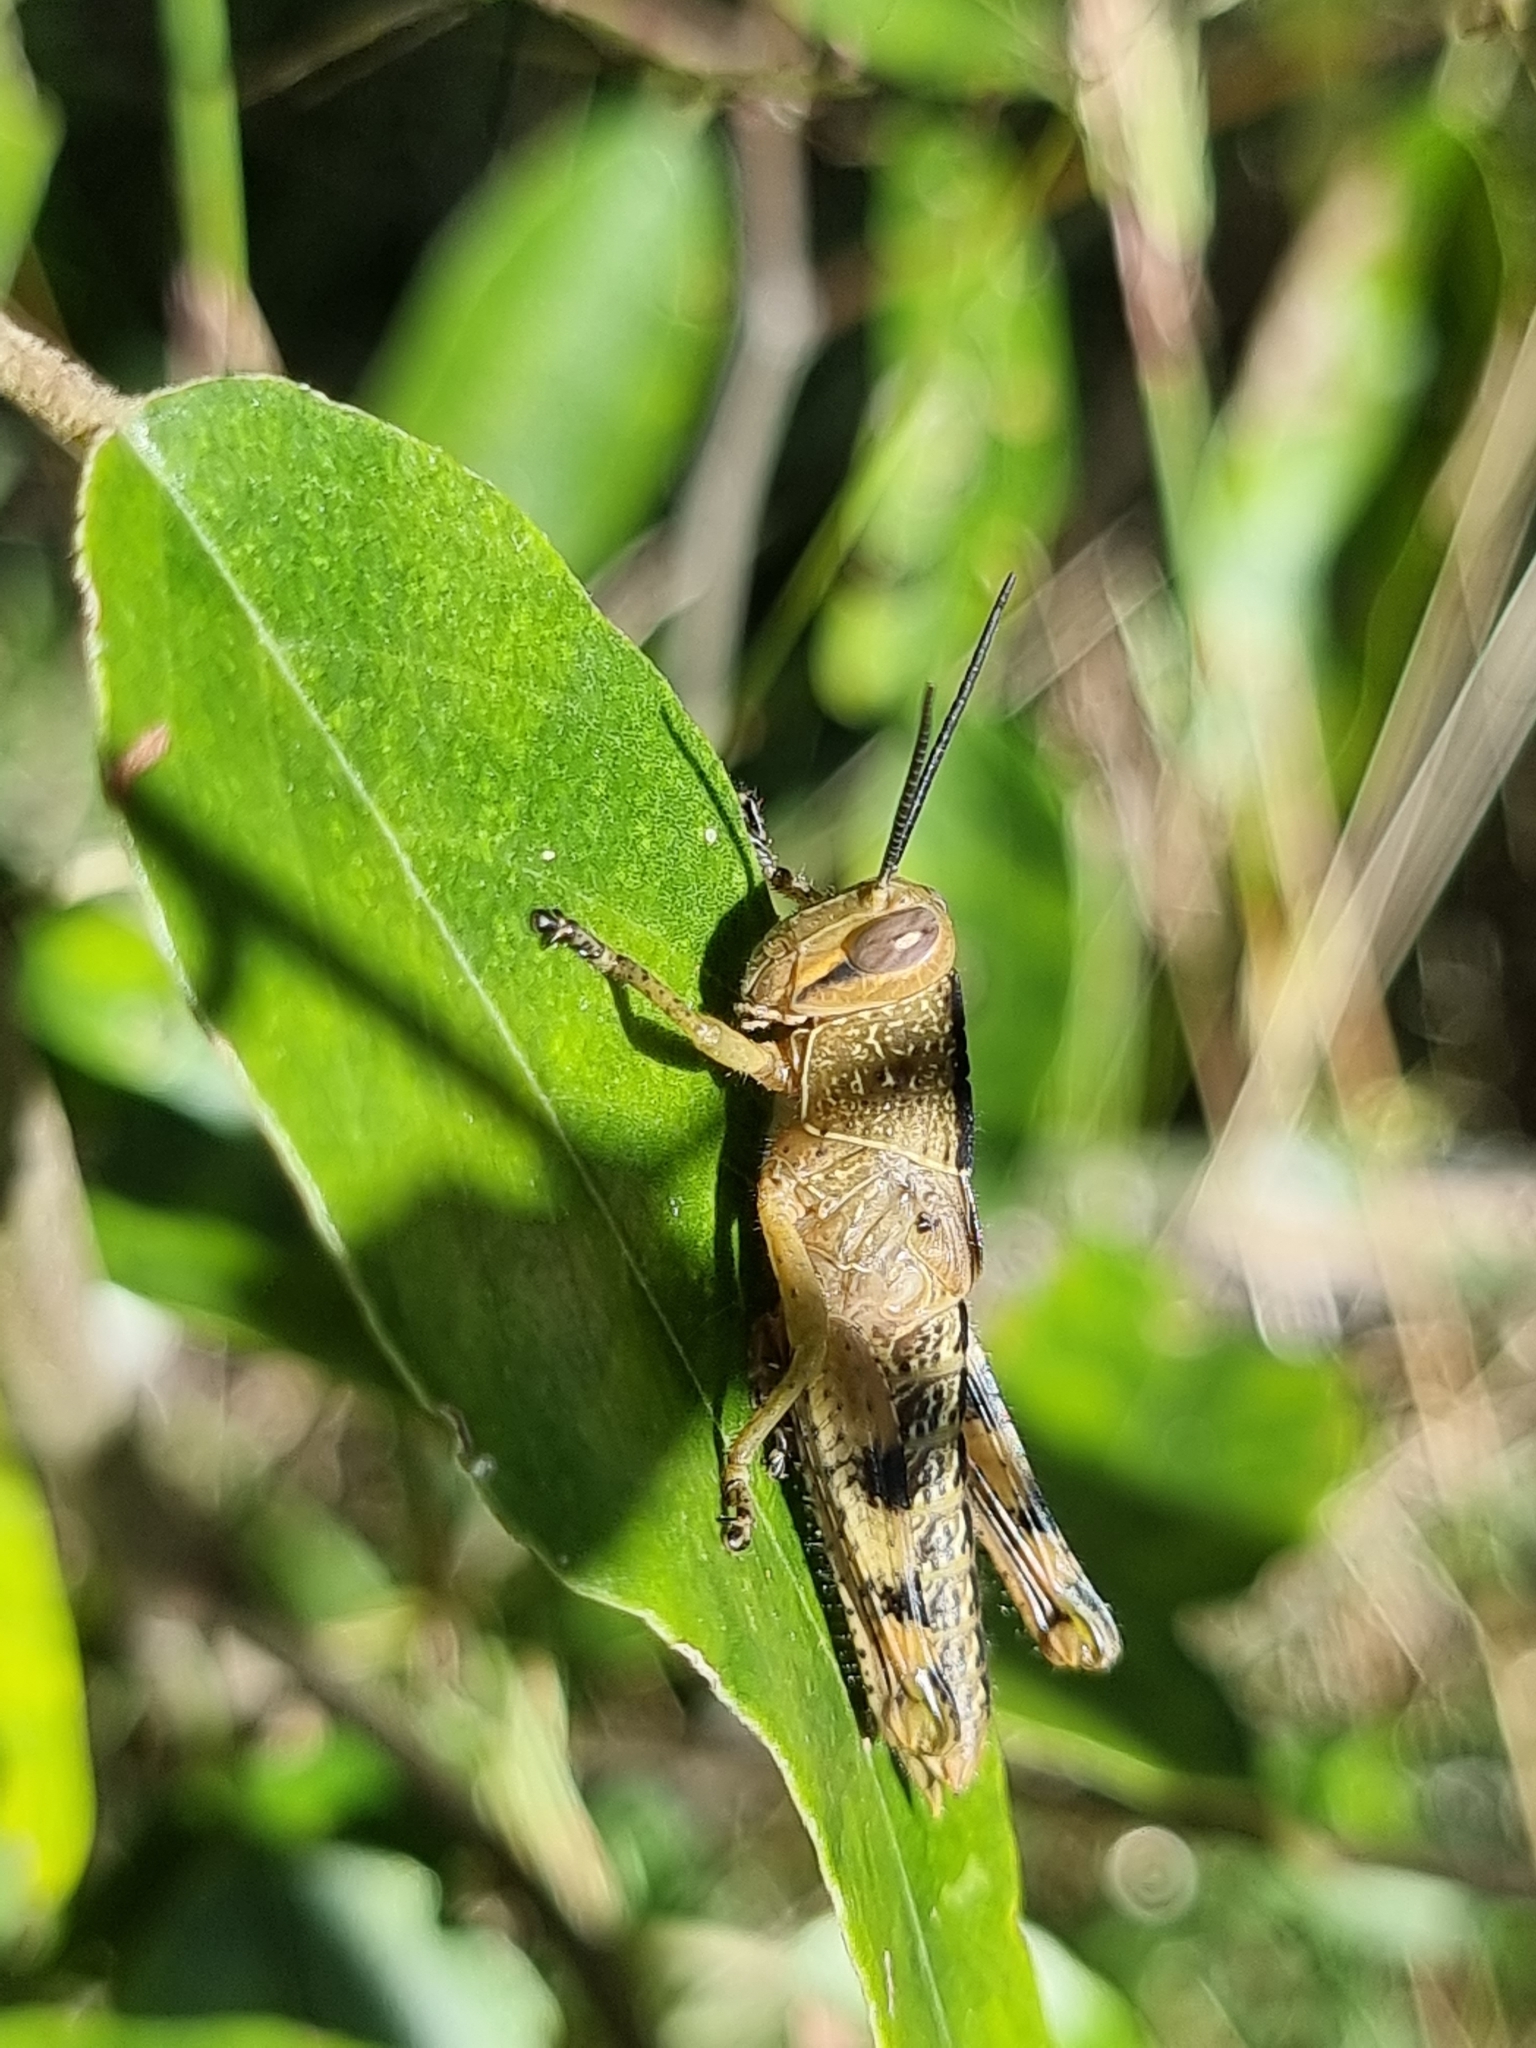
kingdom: Animalia
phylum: Arthropoda
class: Insecta
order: Orthoptera
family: Acrididae
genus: Valanga
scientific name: Valanga irregularis
